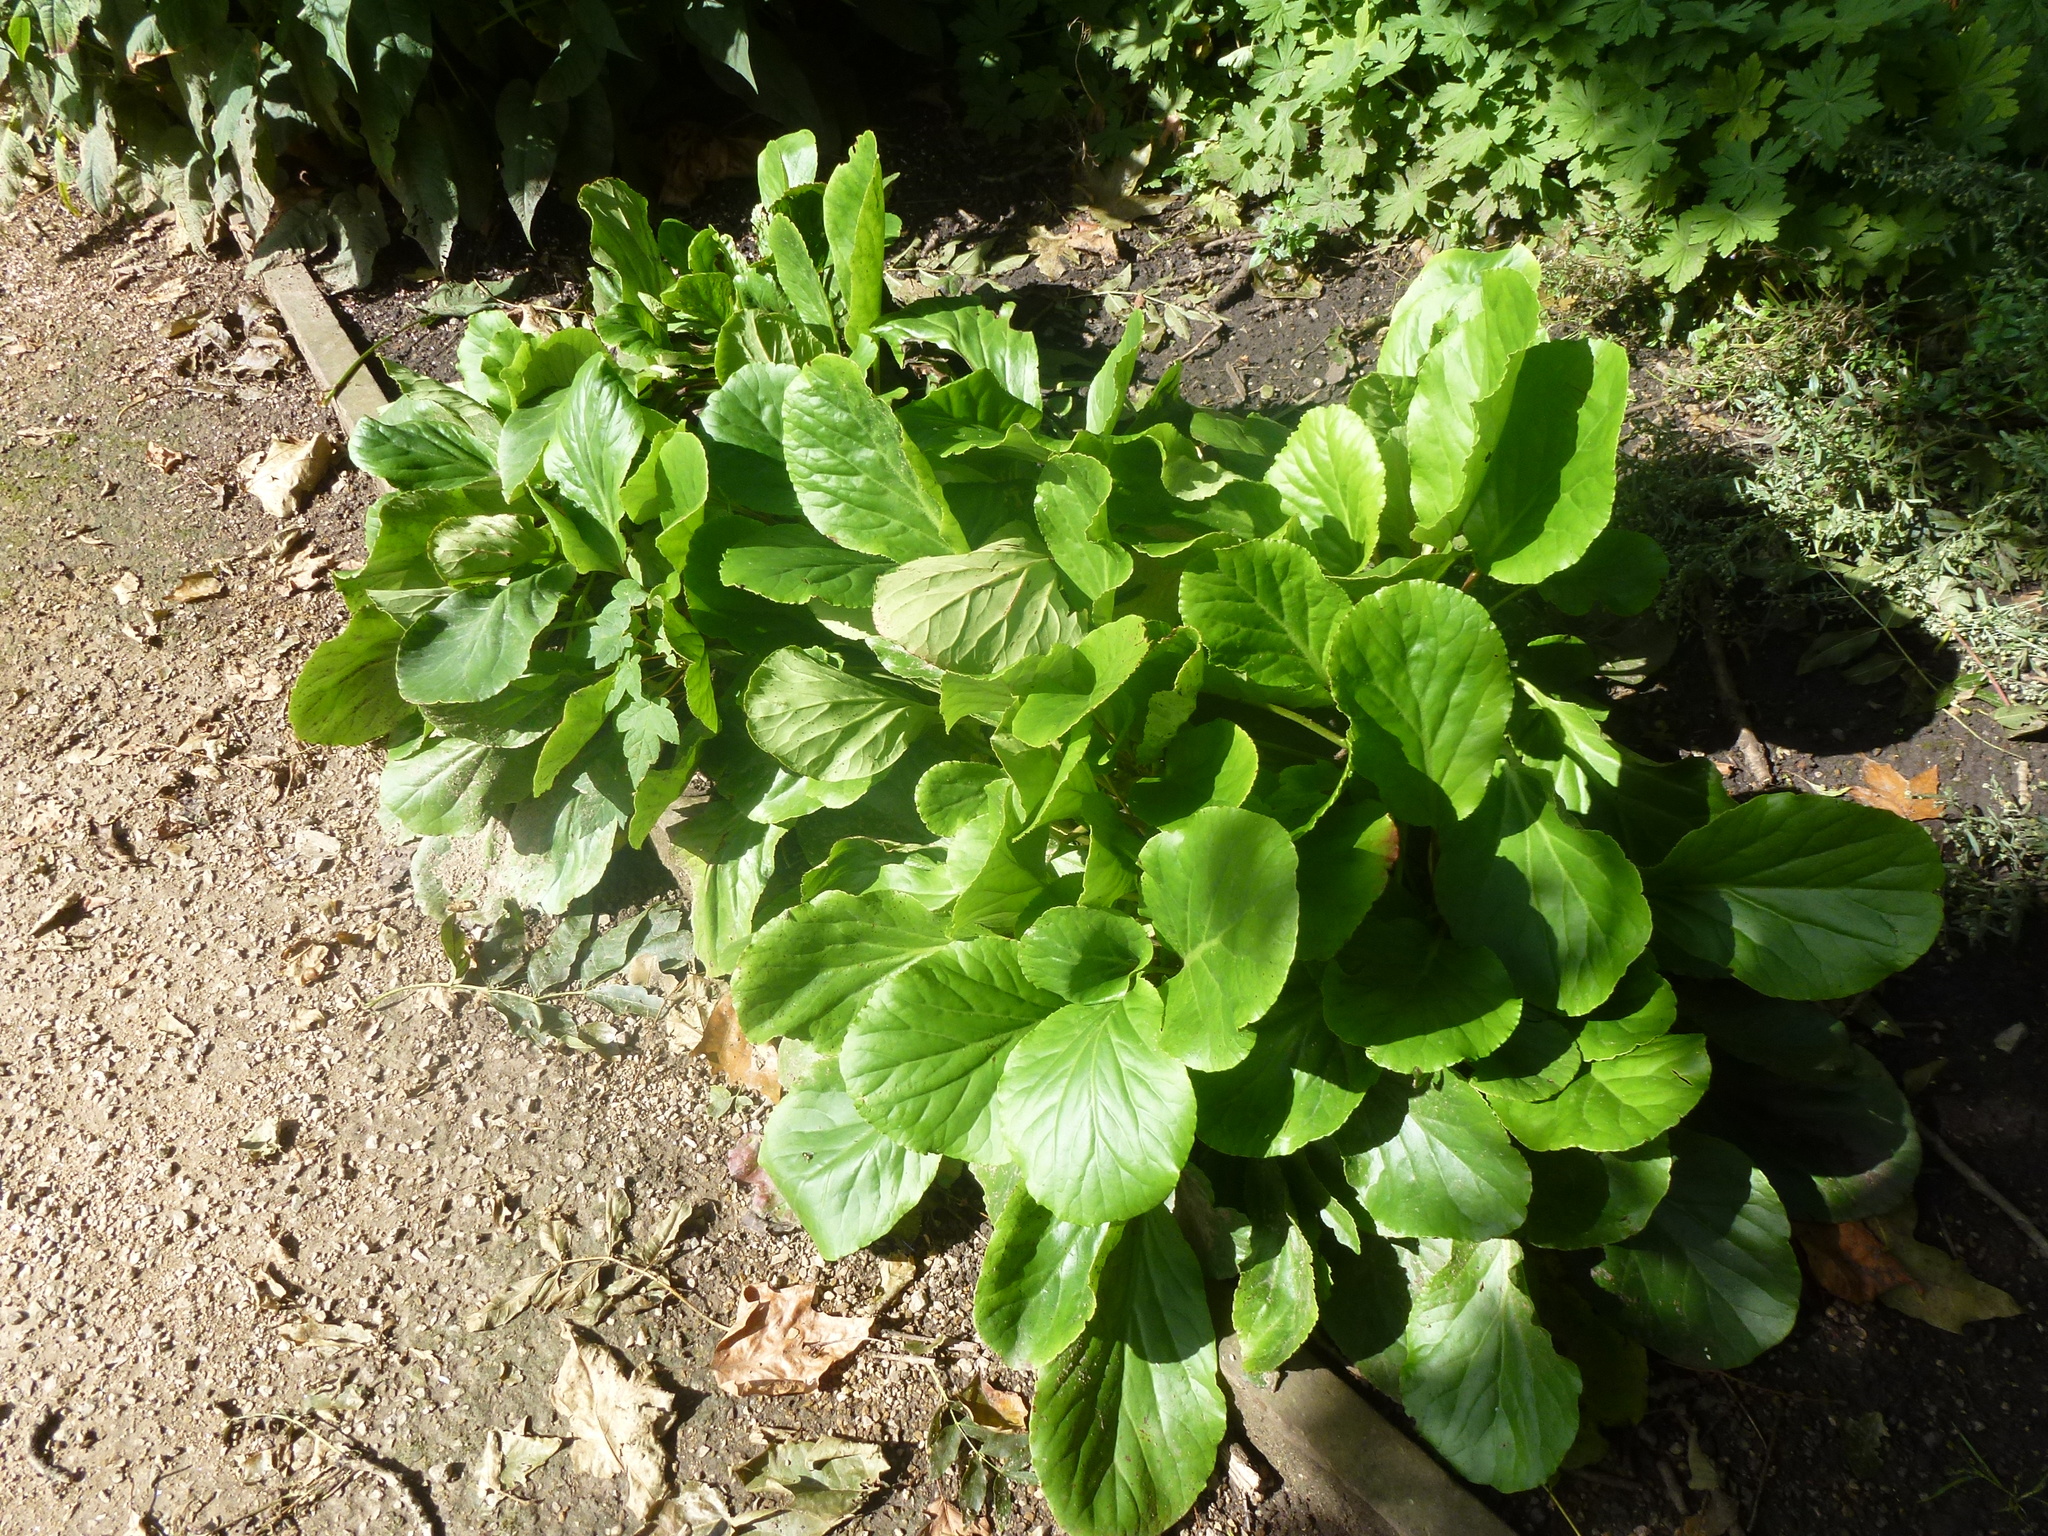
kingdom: Plantae
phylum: Tracheophyta
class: Magnoliopsida
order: Saxifragales
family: Saxifragaceae
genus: Bergenia
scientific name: Bergenia crassifolia
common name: Elephant-ears
